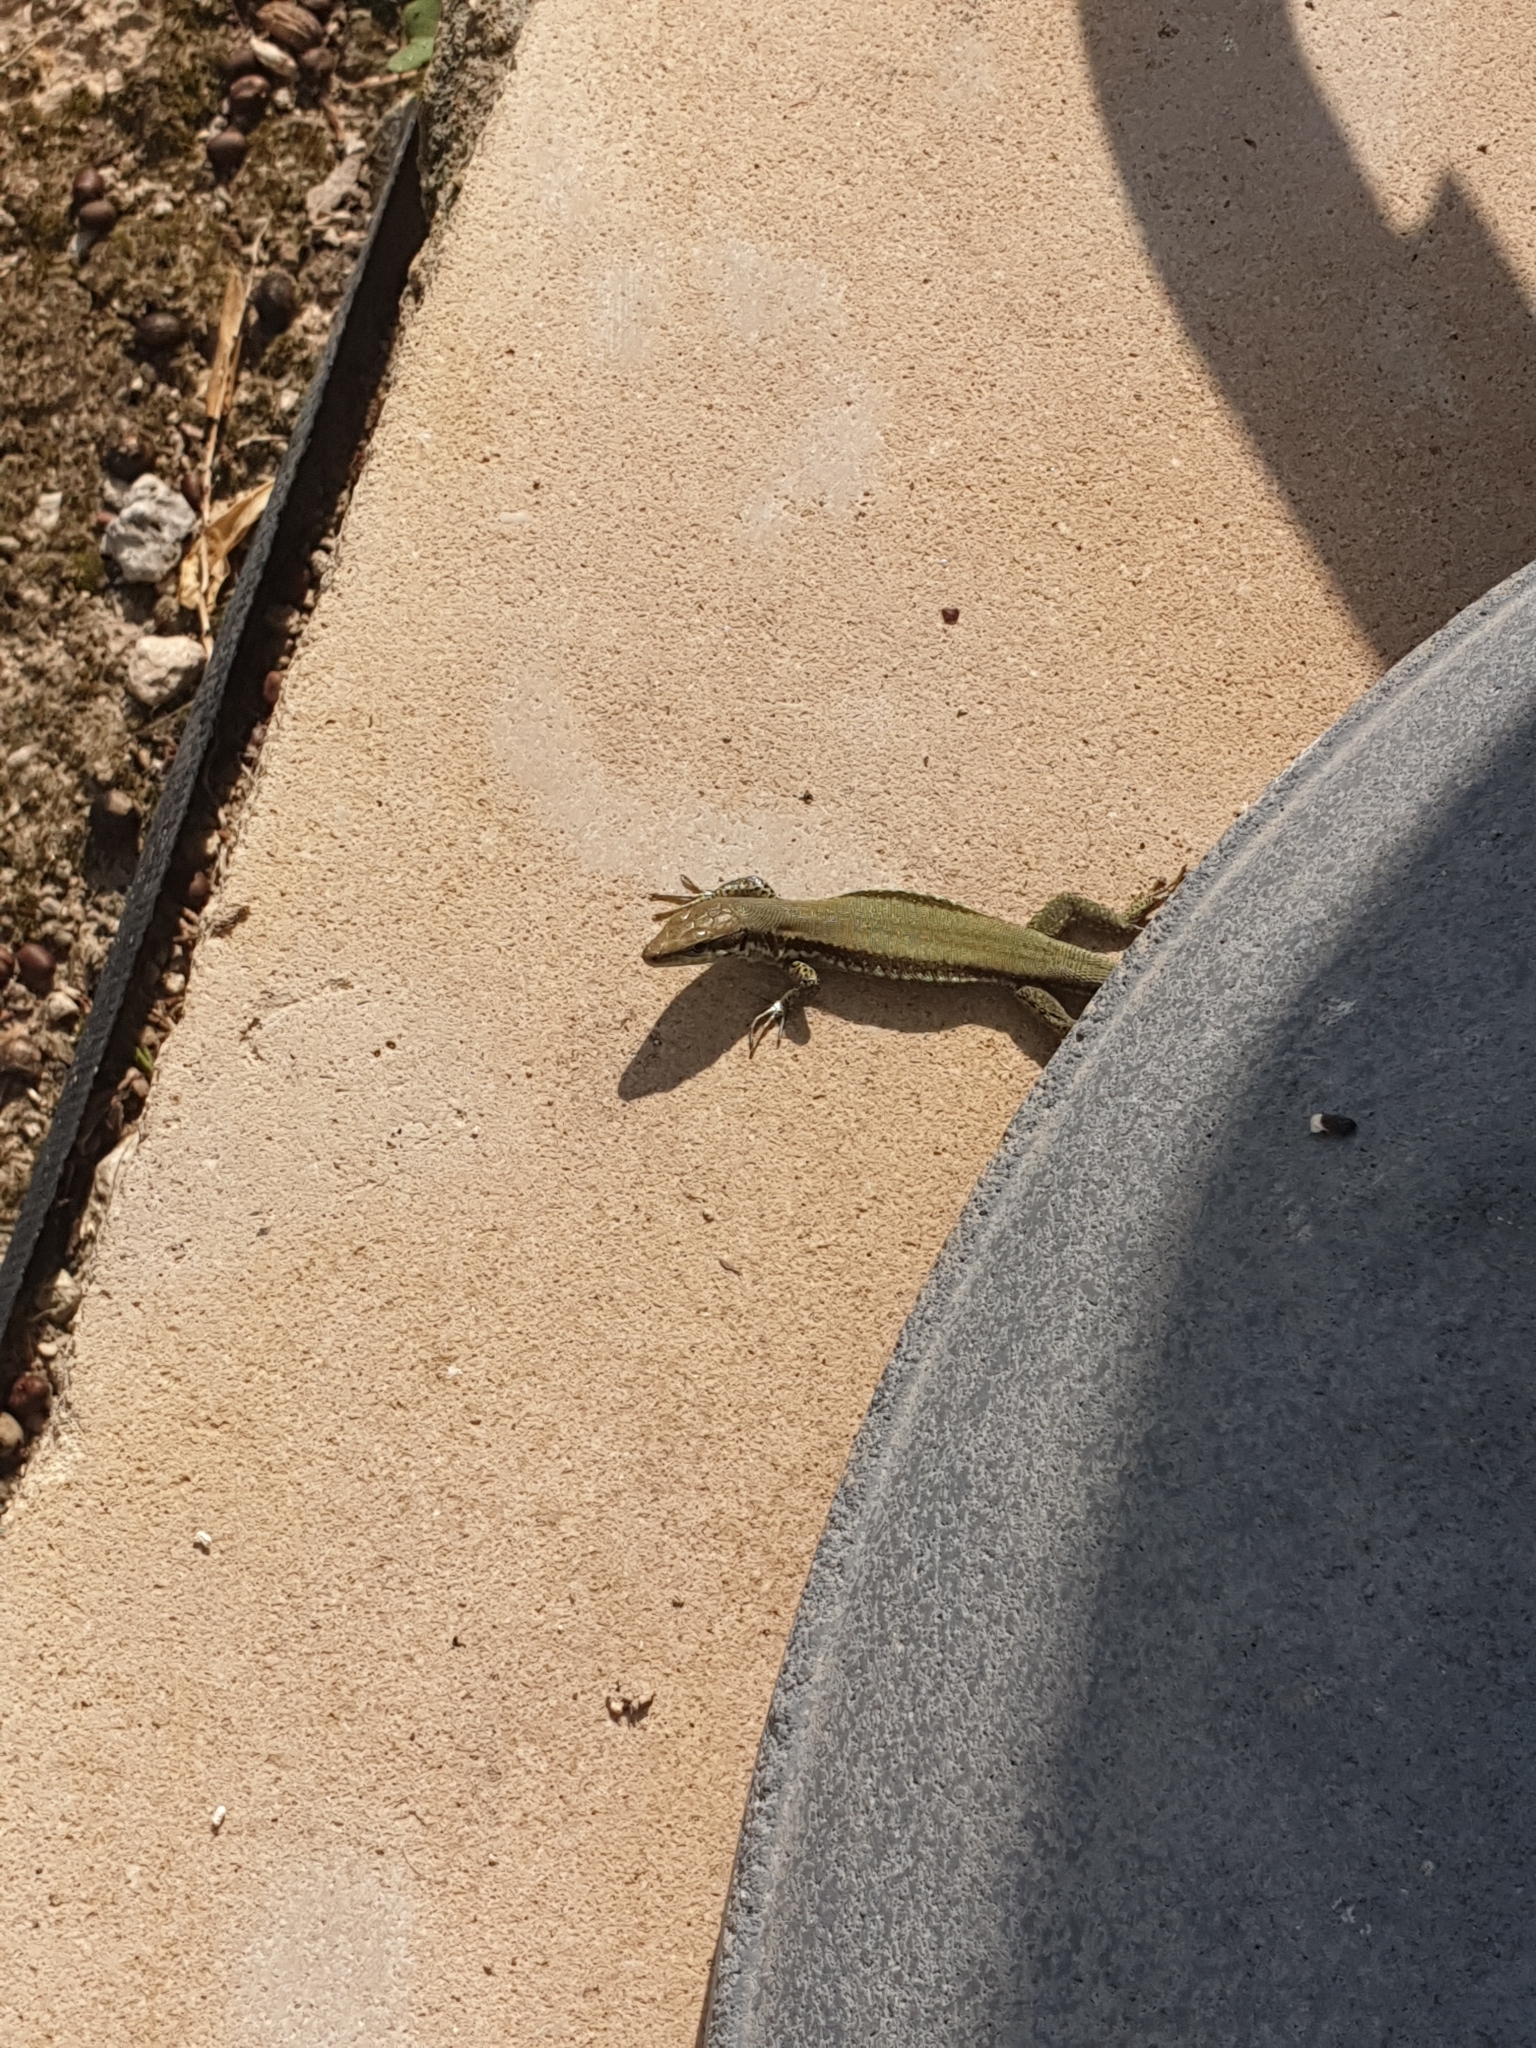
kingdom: Animalia
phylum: Chordata
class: Squamata
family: Lacertidae
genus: Phoenicolacerta
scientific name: Phoenicolacerta troodica
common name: Troodos wall lizard
